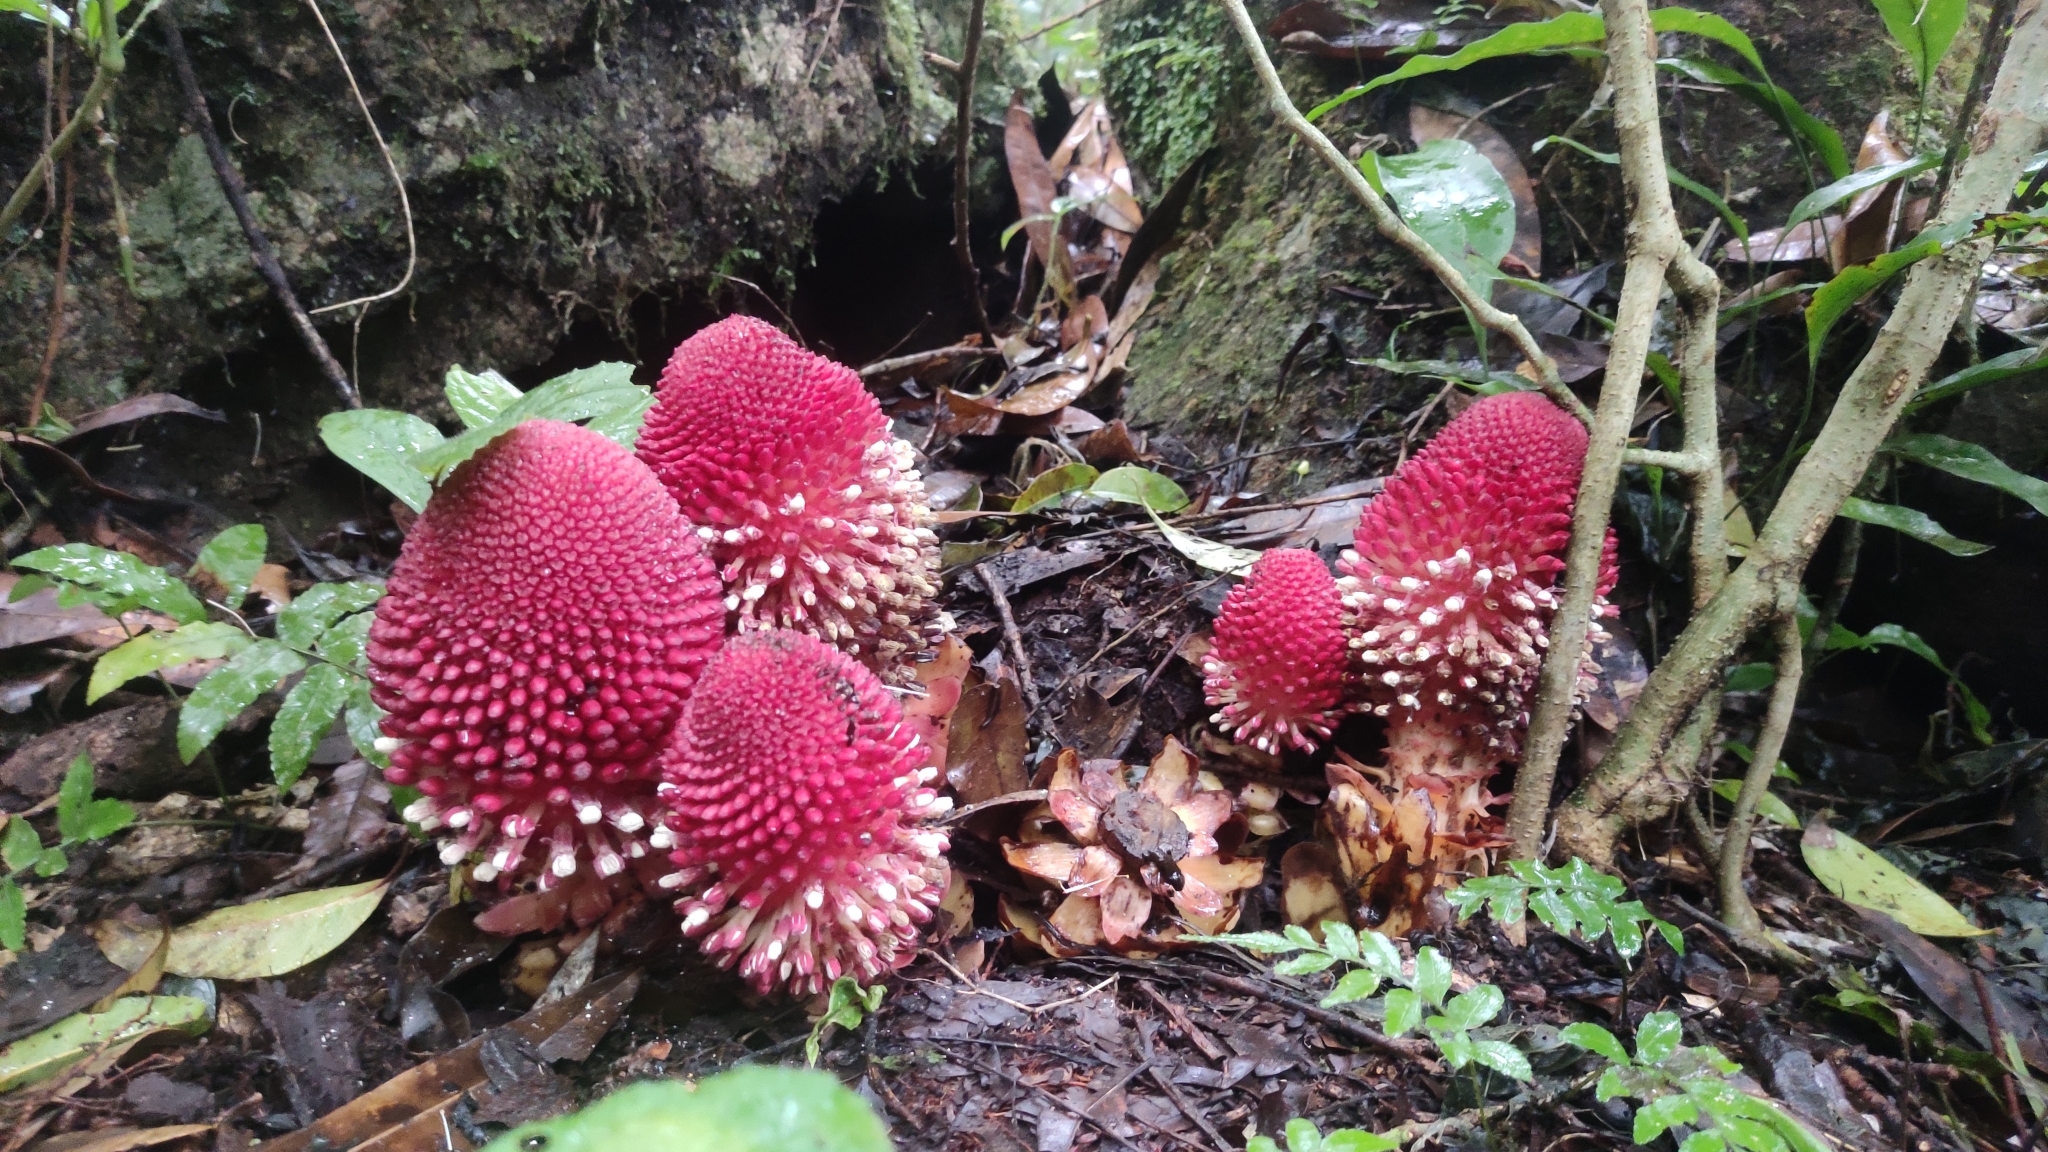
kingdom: Plantae
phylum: Tracheophyta
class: Magnoliopsida
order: Santalales
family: Balanophoraceae
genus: Balanophora
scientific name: Balanophora fungosa
